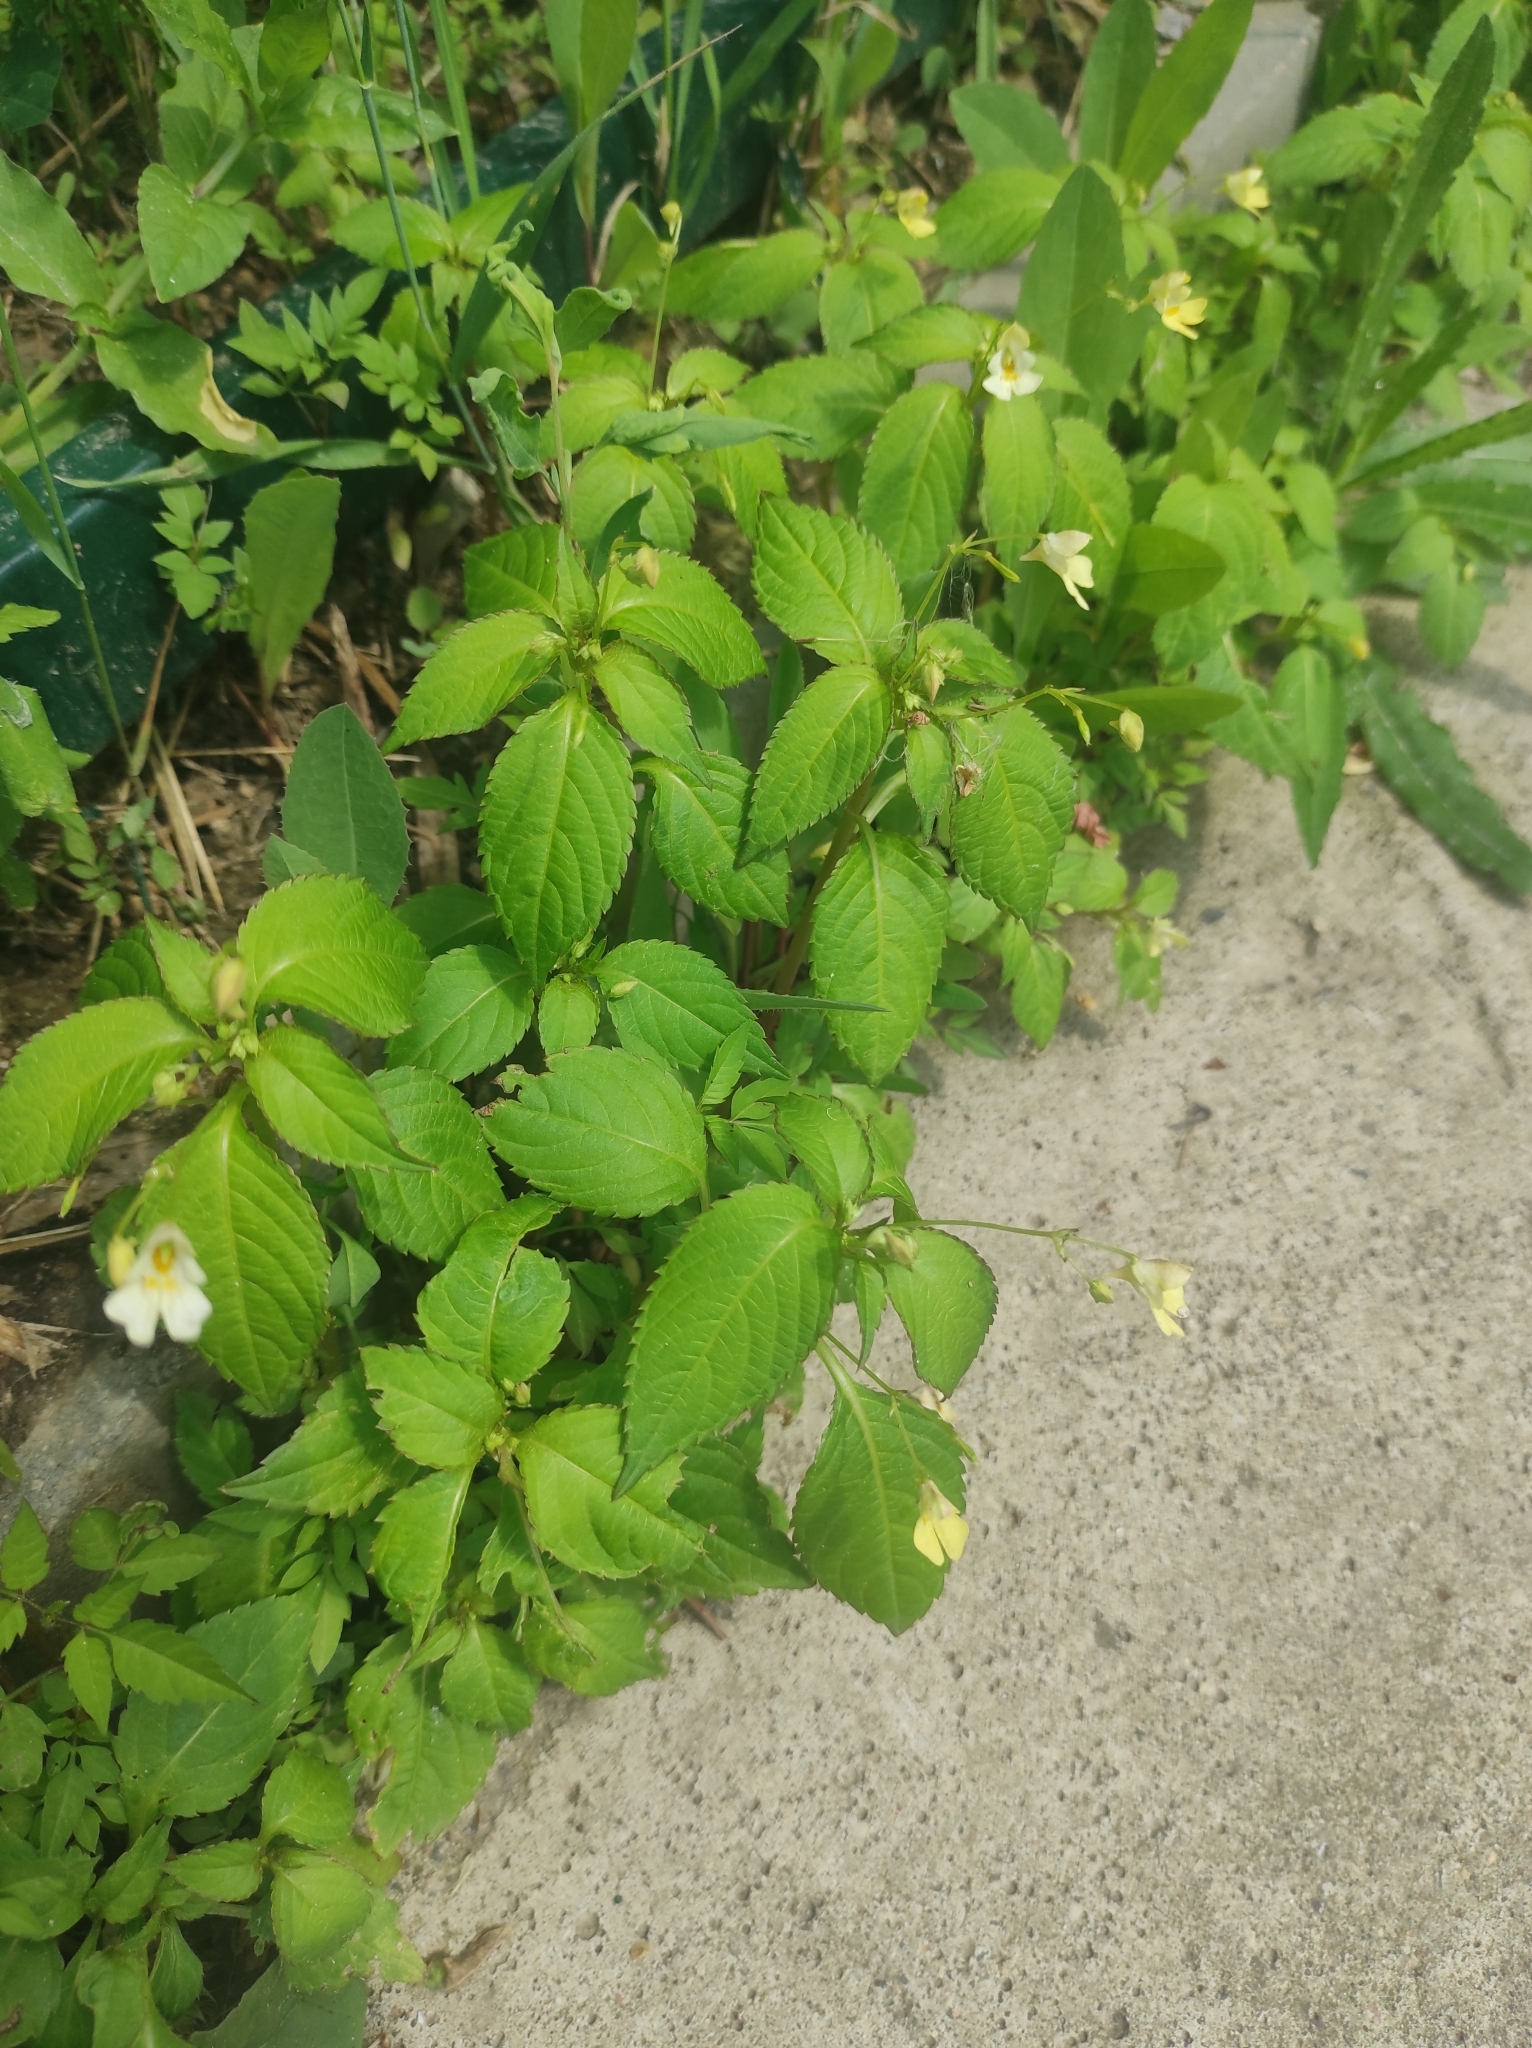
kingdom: Plantae
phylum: Tracheophyta
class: Magnoliopsida
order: Ericales
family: Balsaminaceae
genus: Impatiens
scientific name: Impatiens parviflora
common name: Small balsam
